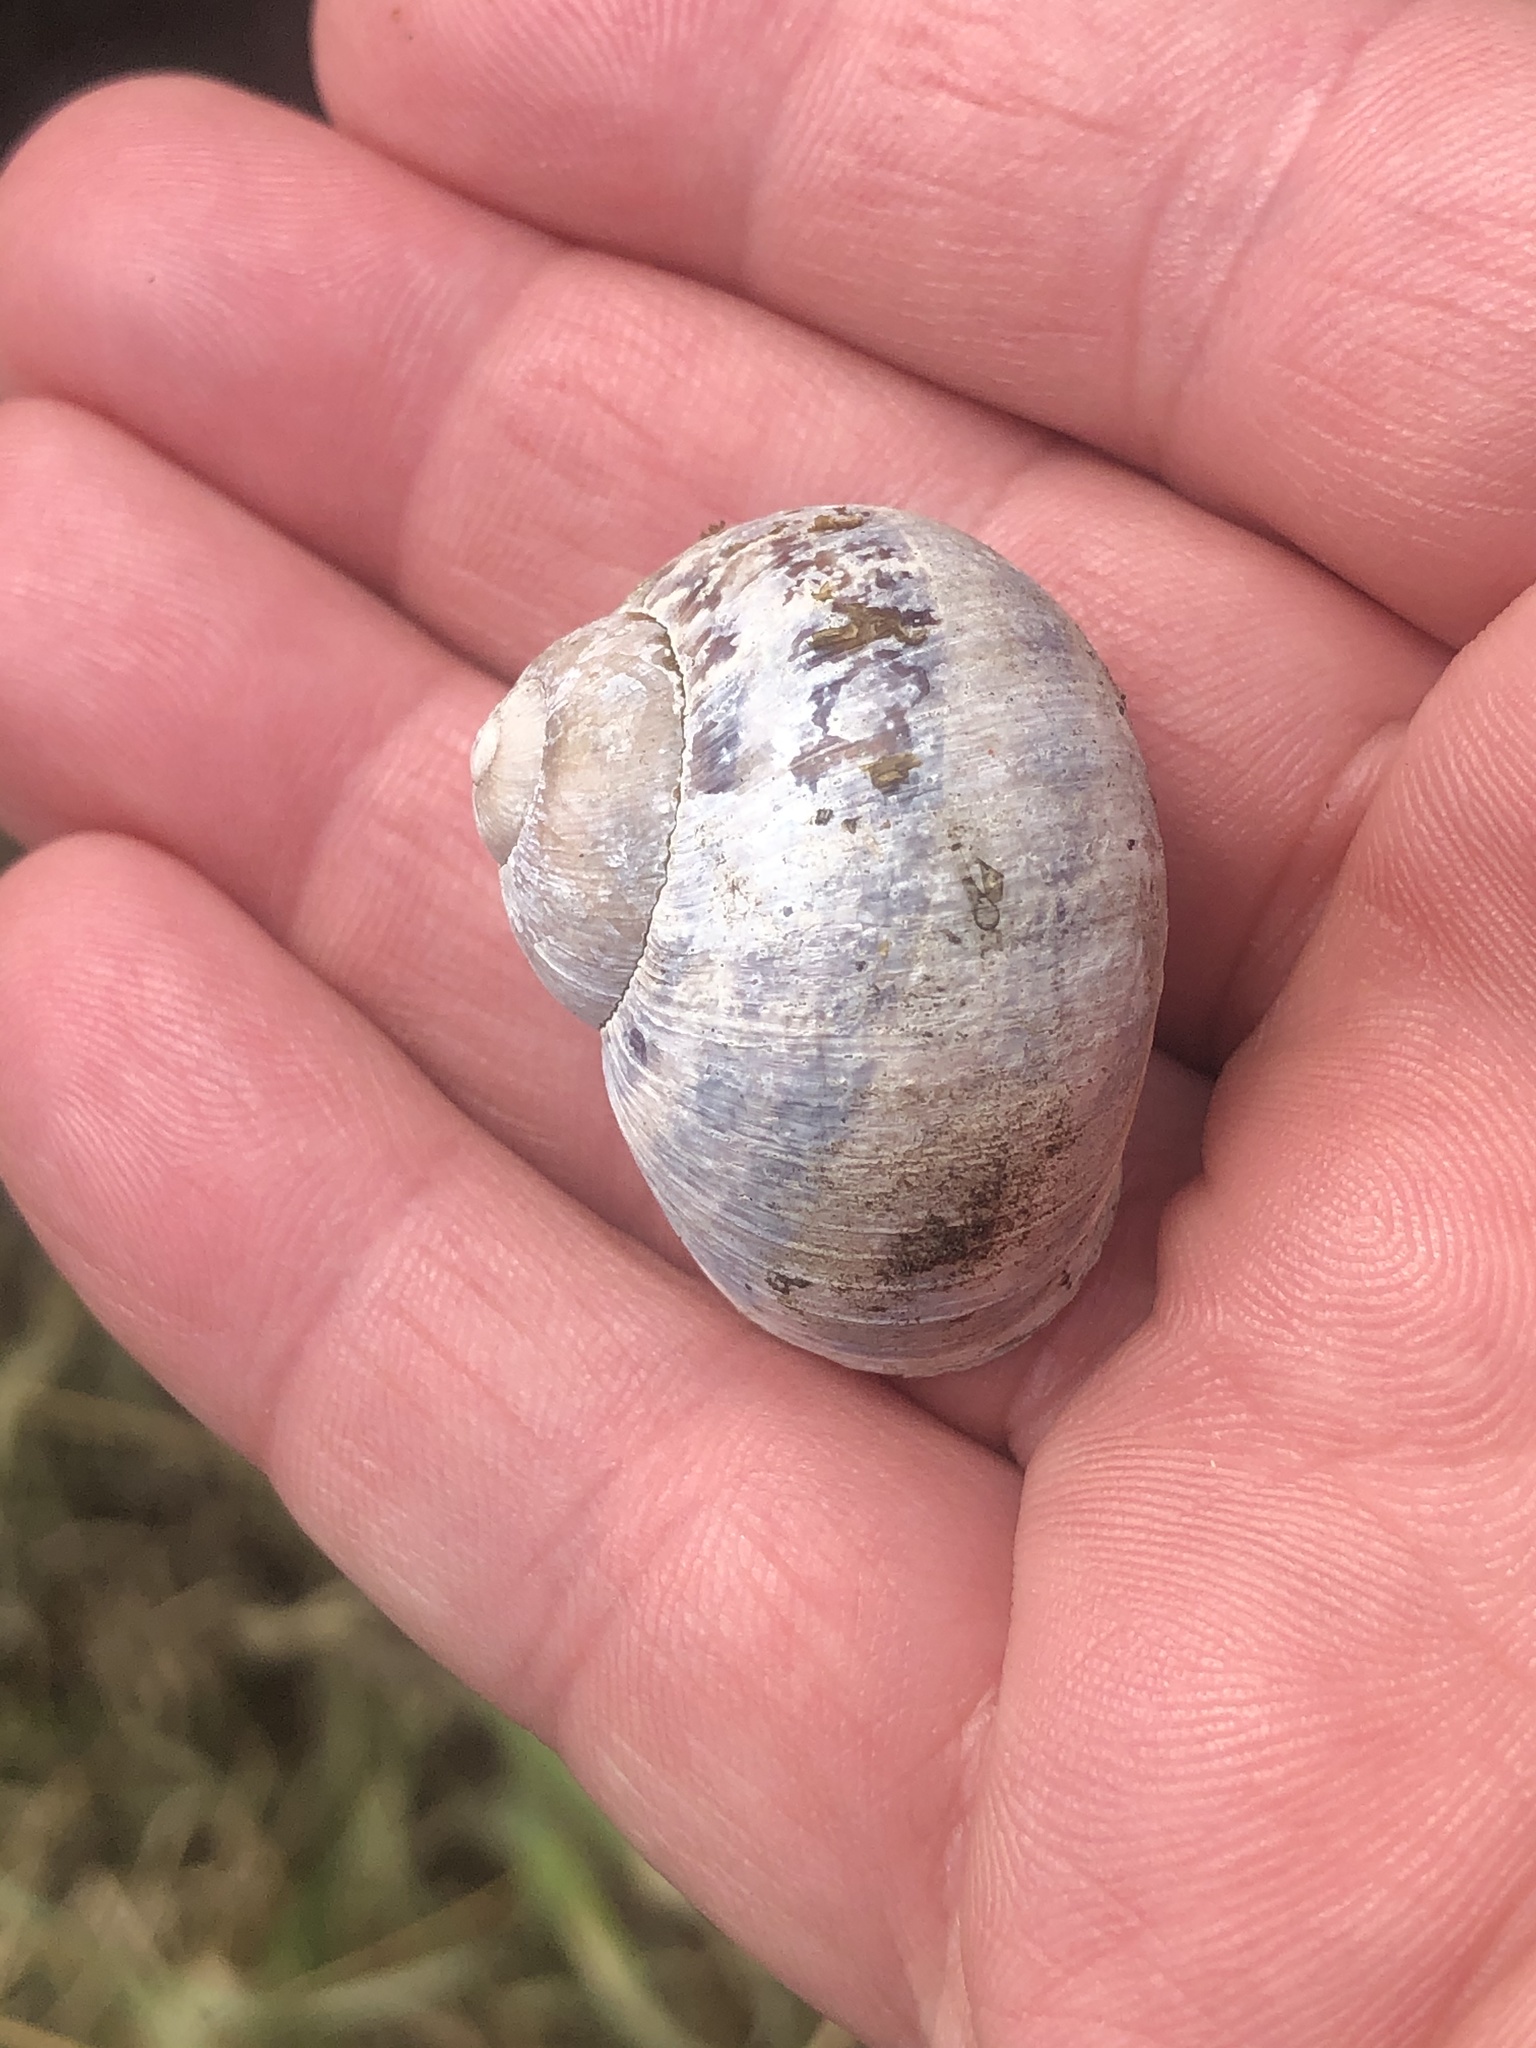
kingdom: Animalia
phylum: Mollusca
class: Gastropoda
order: Stylommatophora
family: Helicidae
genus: Cornu
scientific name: Cornu aspersum
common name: Brown garden snail
